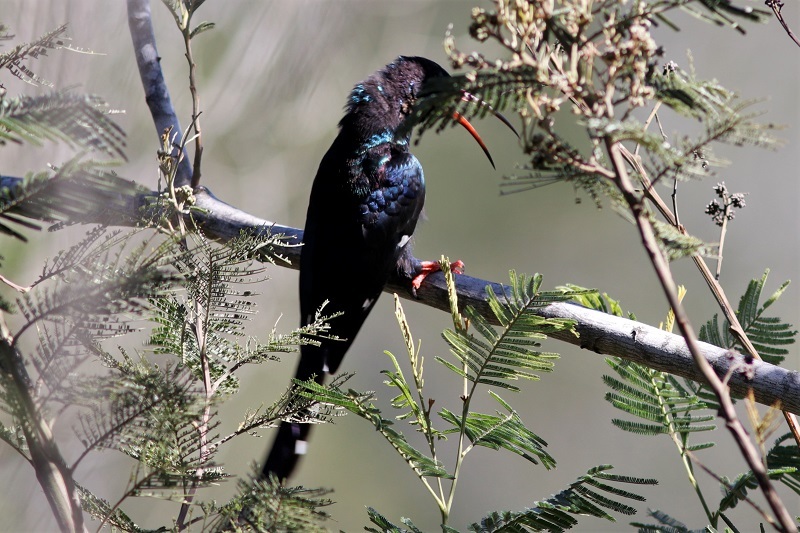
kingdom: Animalia
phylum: Chordata
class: Aves
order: Bucerotiformes
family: Phoeniculidae
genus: Phoeniculus
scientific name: Phoeniculus purpureus
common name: Green woodhoopoe
